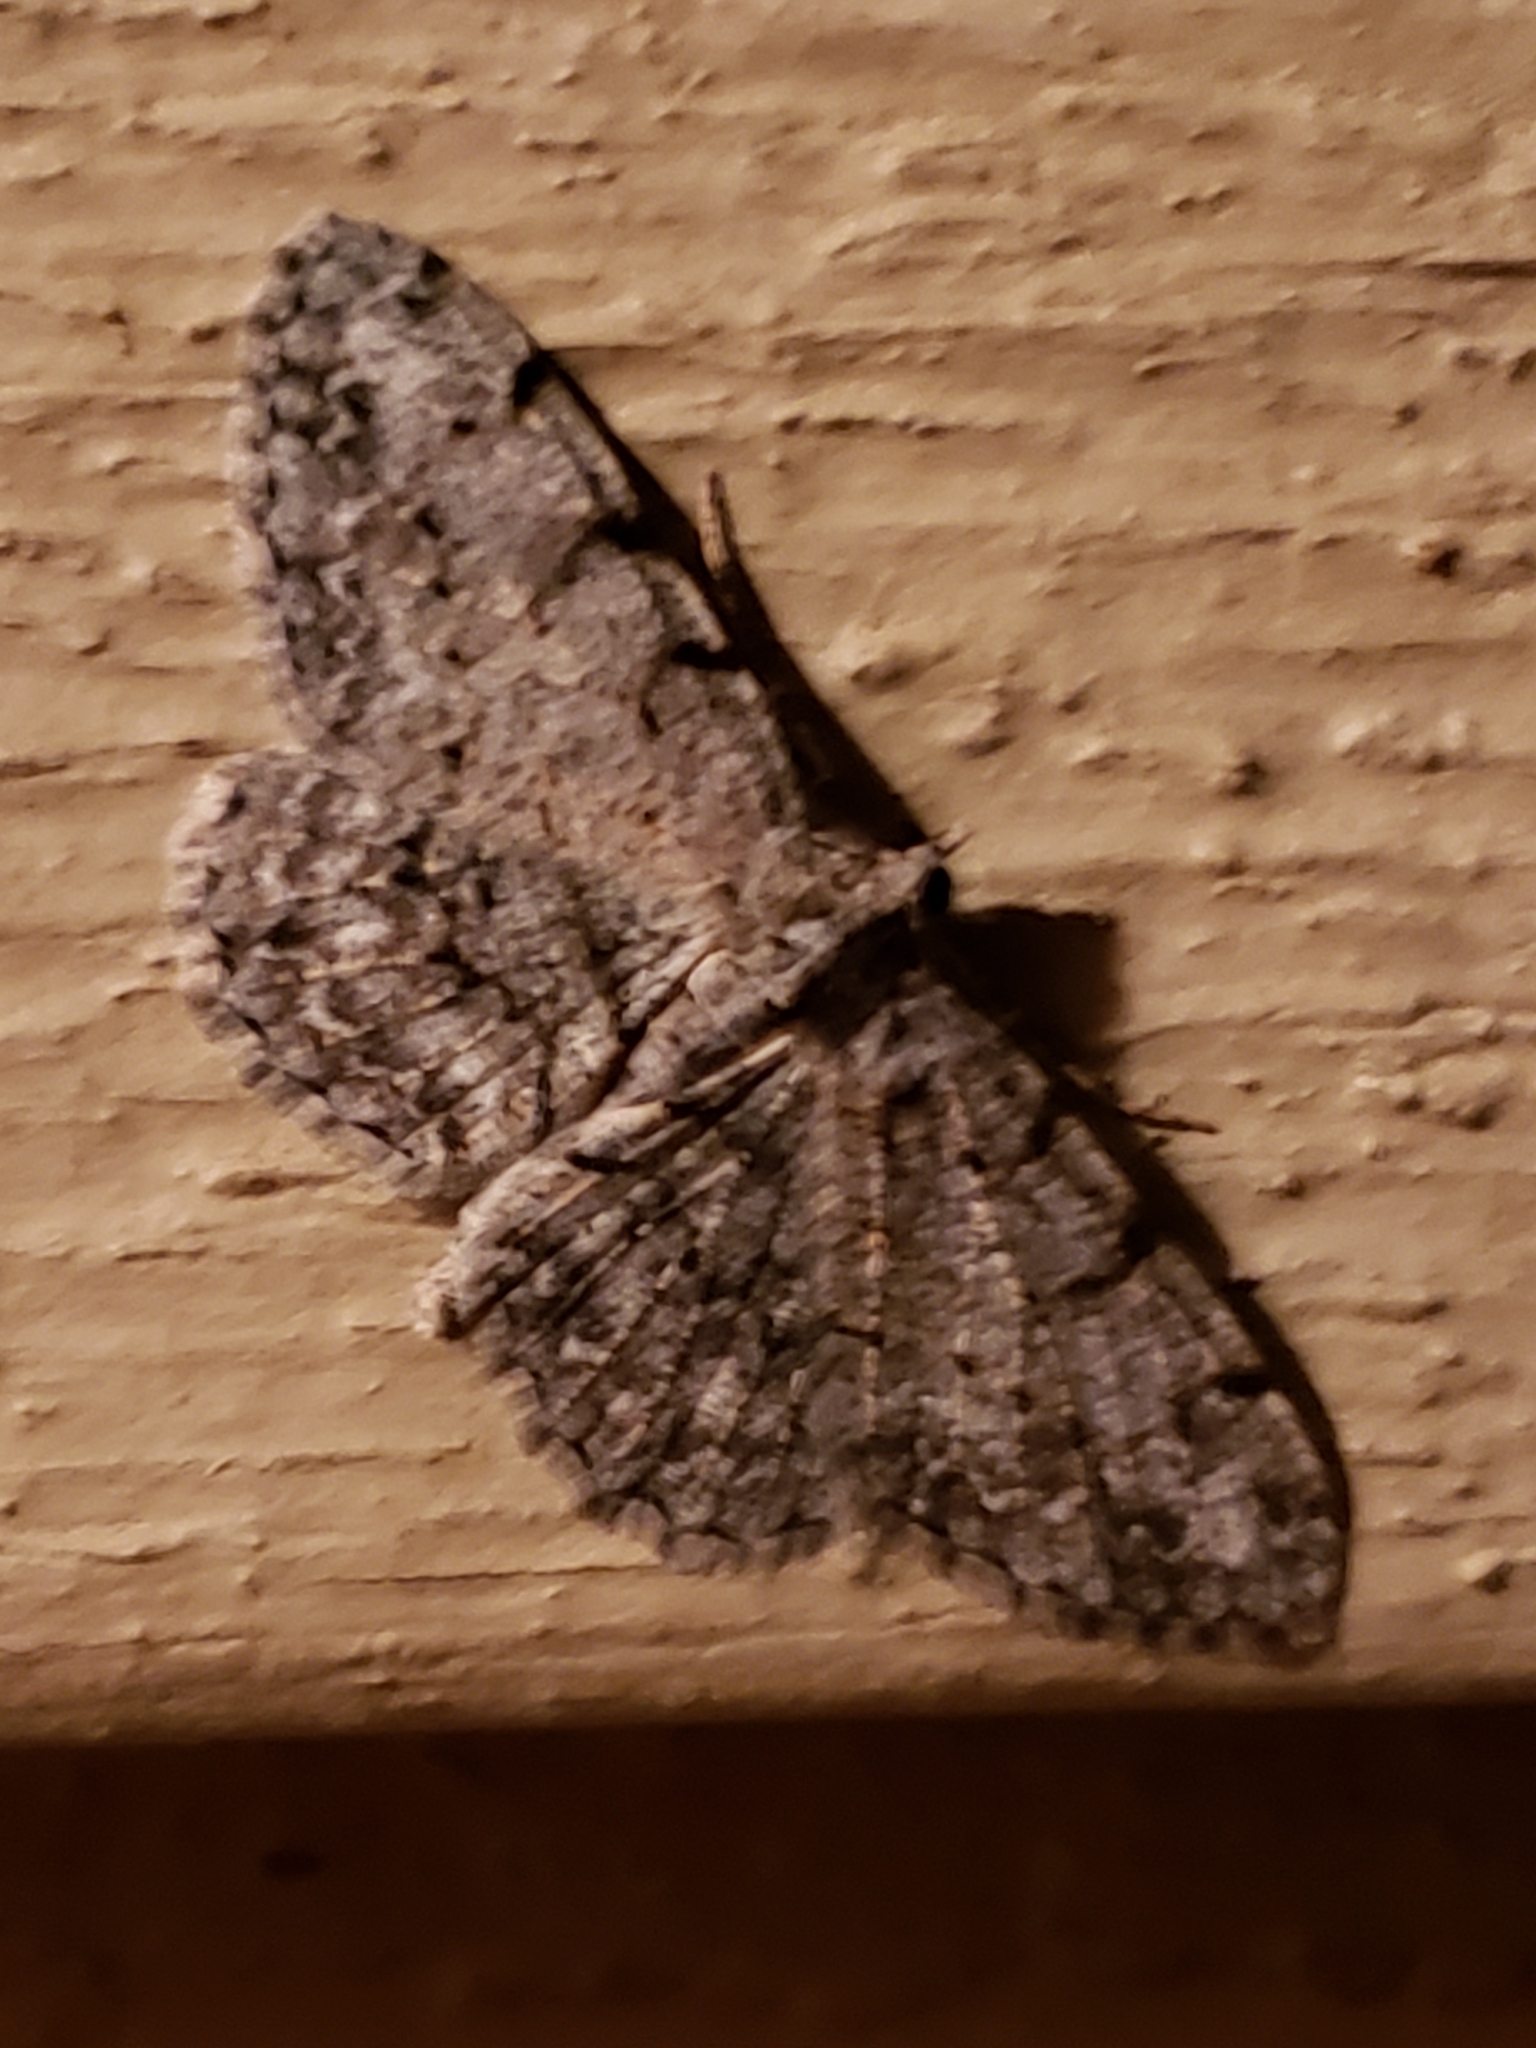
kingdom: Animalia
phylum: Arthropoda
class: Insecta
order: Lepidoptera
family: Geometridae
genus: Protoboarmia
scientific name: Protoboarmia porcelaria
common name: Porcelain gray
